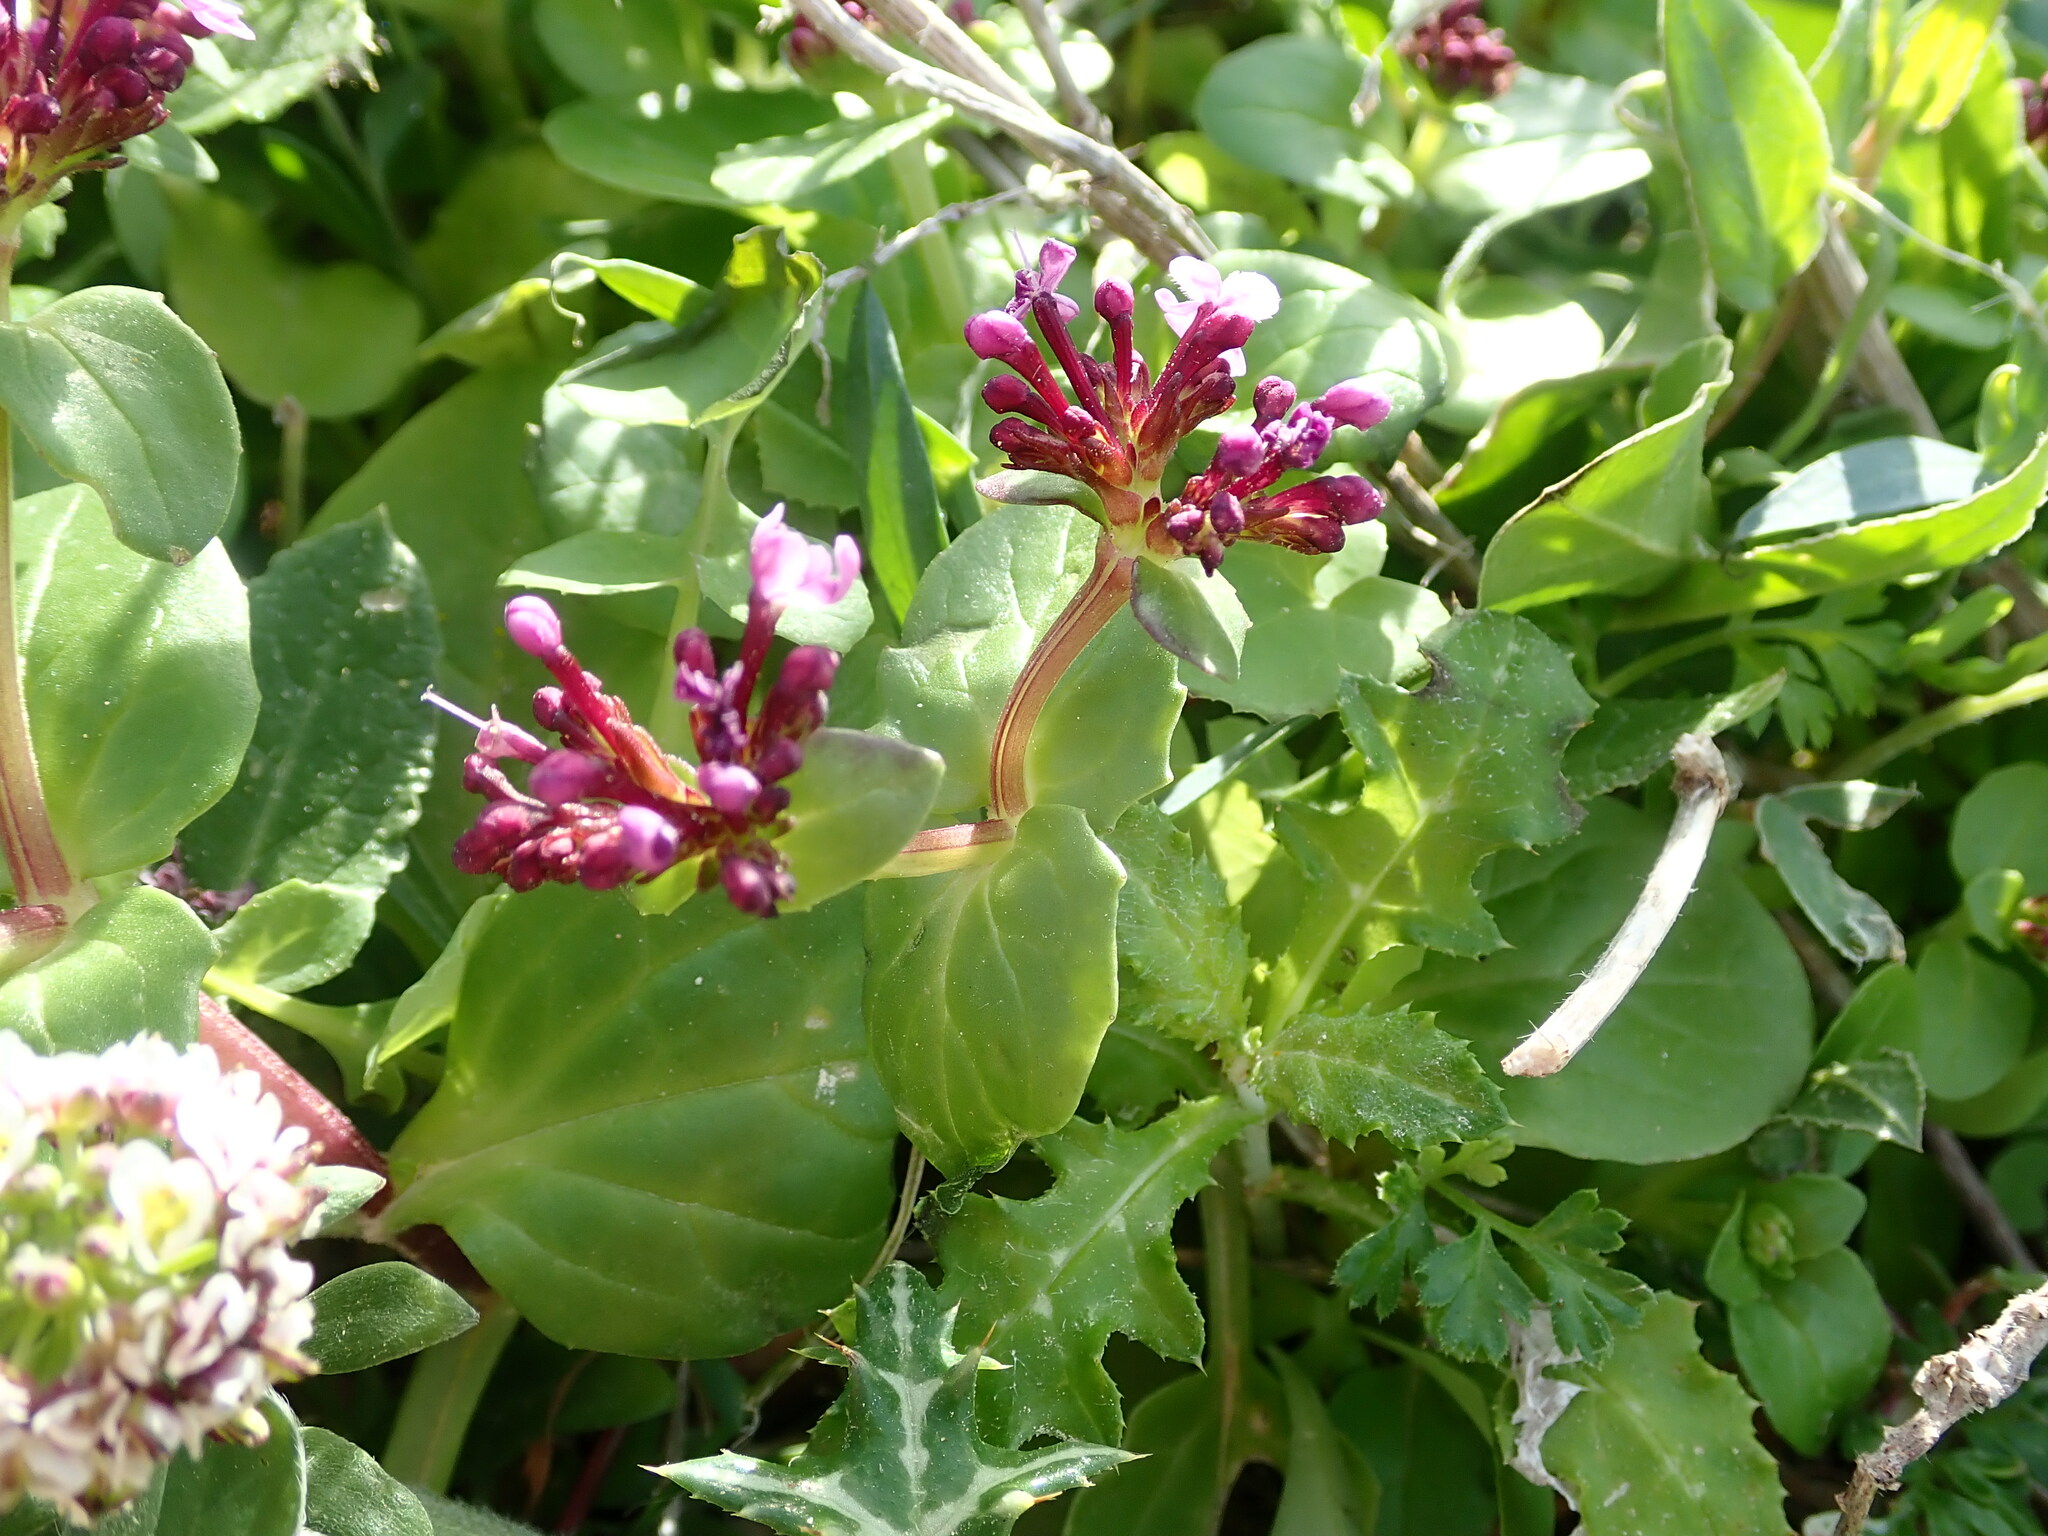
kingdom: Plantae
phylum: Tracheophyta
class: Magnoliopsida
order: Dipsacales
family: Caprifoliaceae
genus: Fedia
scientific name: Fedia graciliflora
